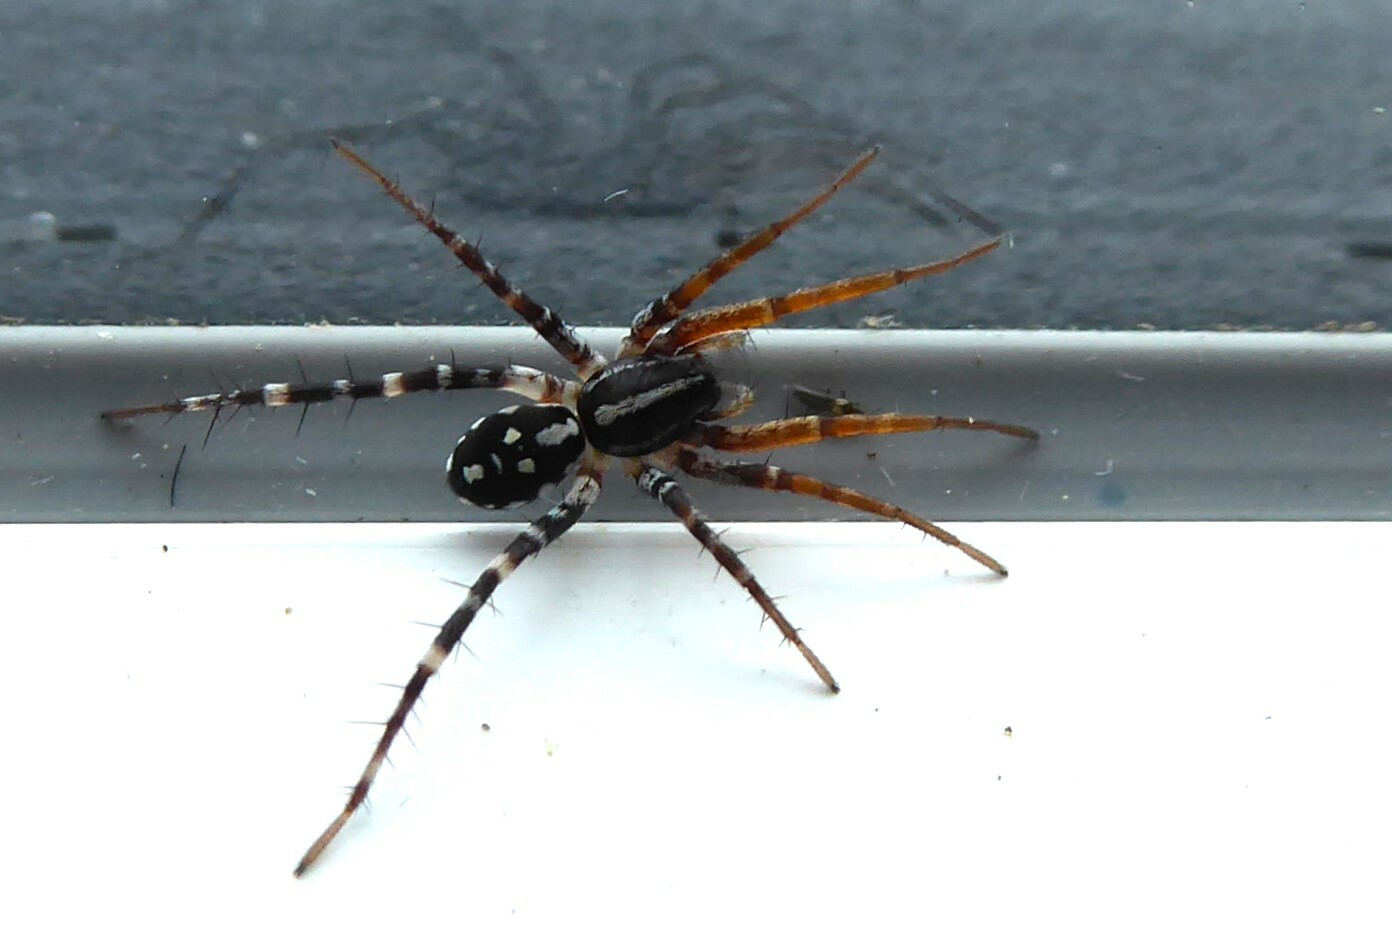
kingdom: Animalia
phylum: Arthropoda
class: Arachnida
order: Araneae
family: Corinnidae
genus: Nyssus
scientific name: Nyssus coloripes
